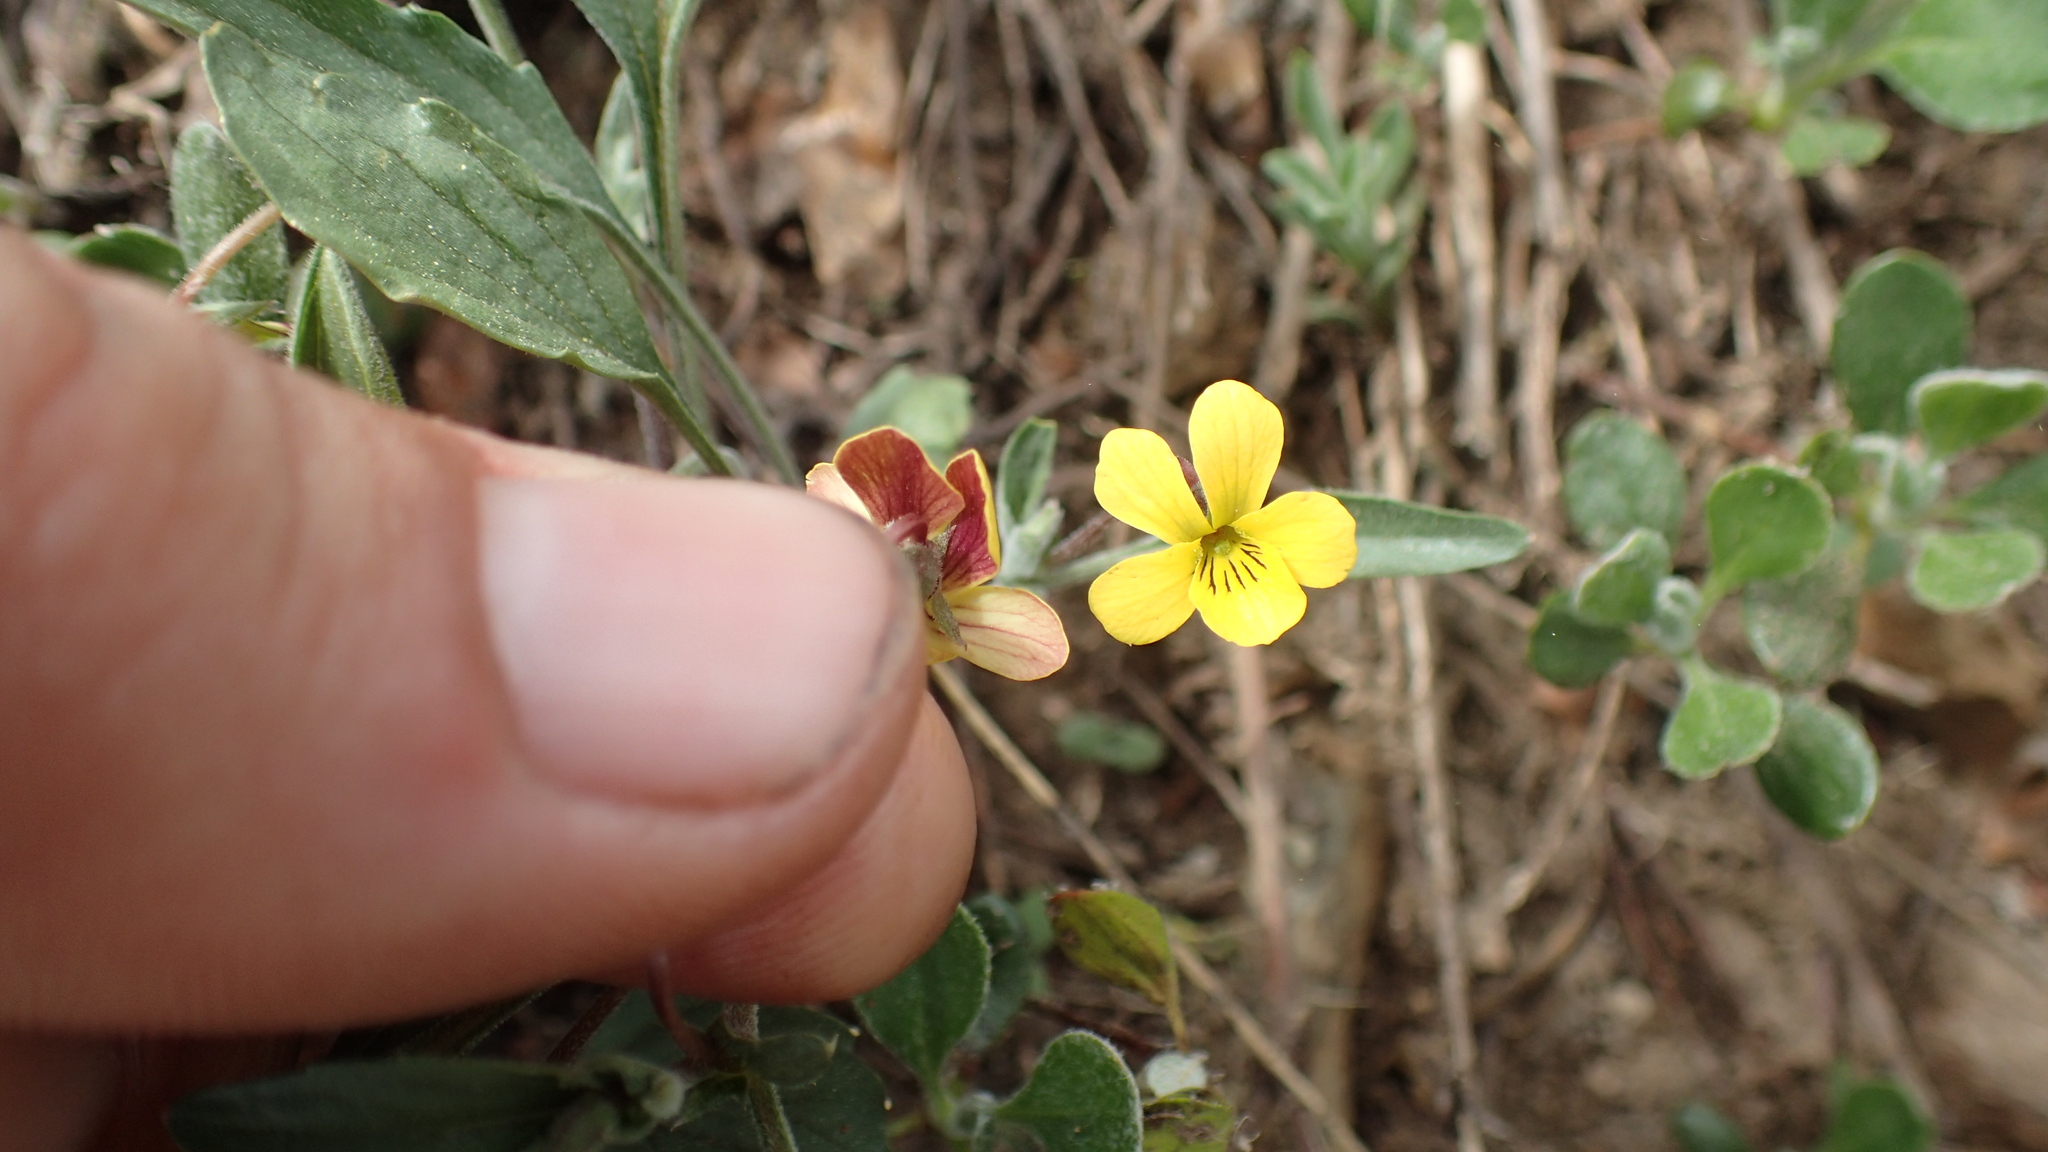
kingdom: Plantae
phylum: Tracheophyta
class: Magnoliopsida
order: Malpighiales
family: Violaceae
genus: Viola
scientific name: Viola pinetorum
